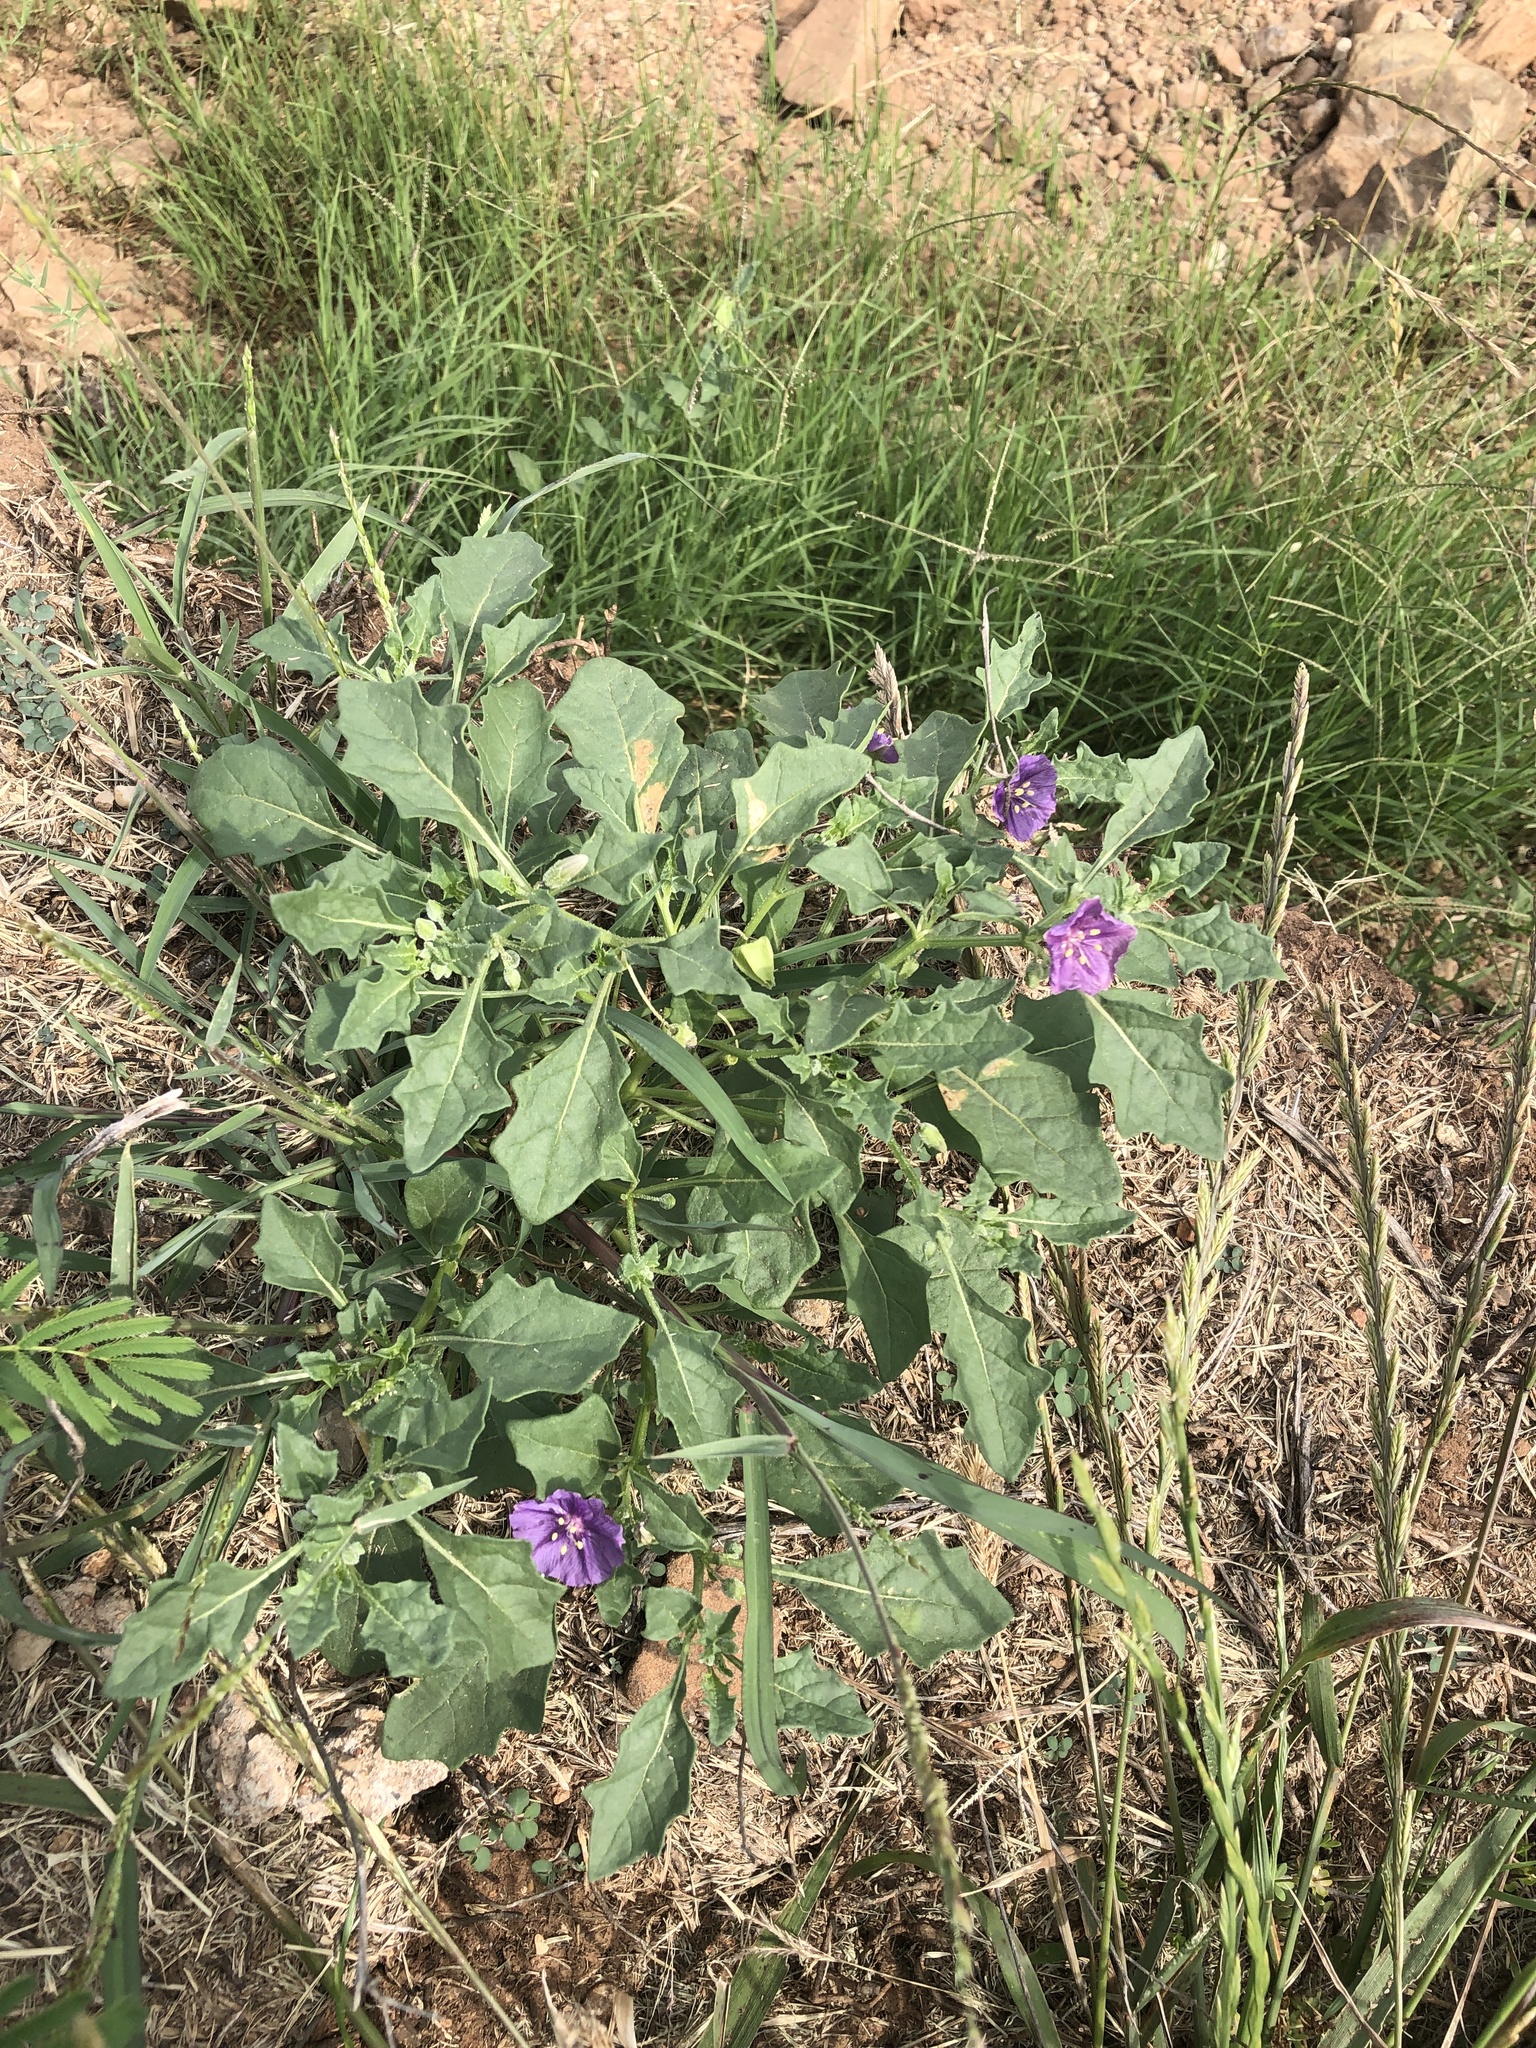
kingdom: Plantae
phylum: Tracheophyta
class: Magnoliopsida
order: Solanales
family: Solanaceae
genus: Quincula
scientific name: Quincula lobata
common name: Purple-ground-cherry
